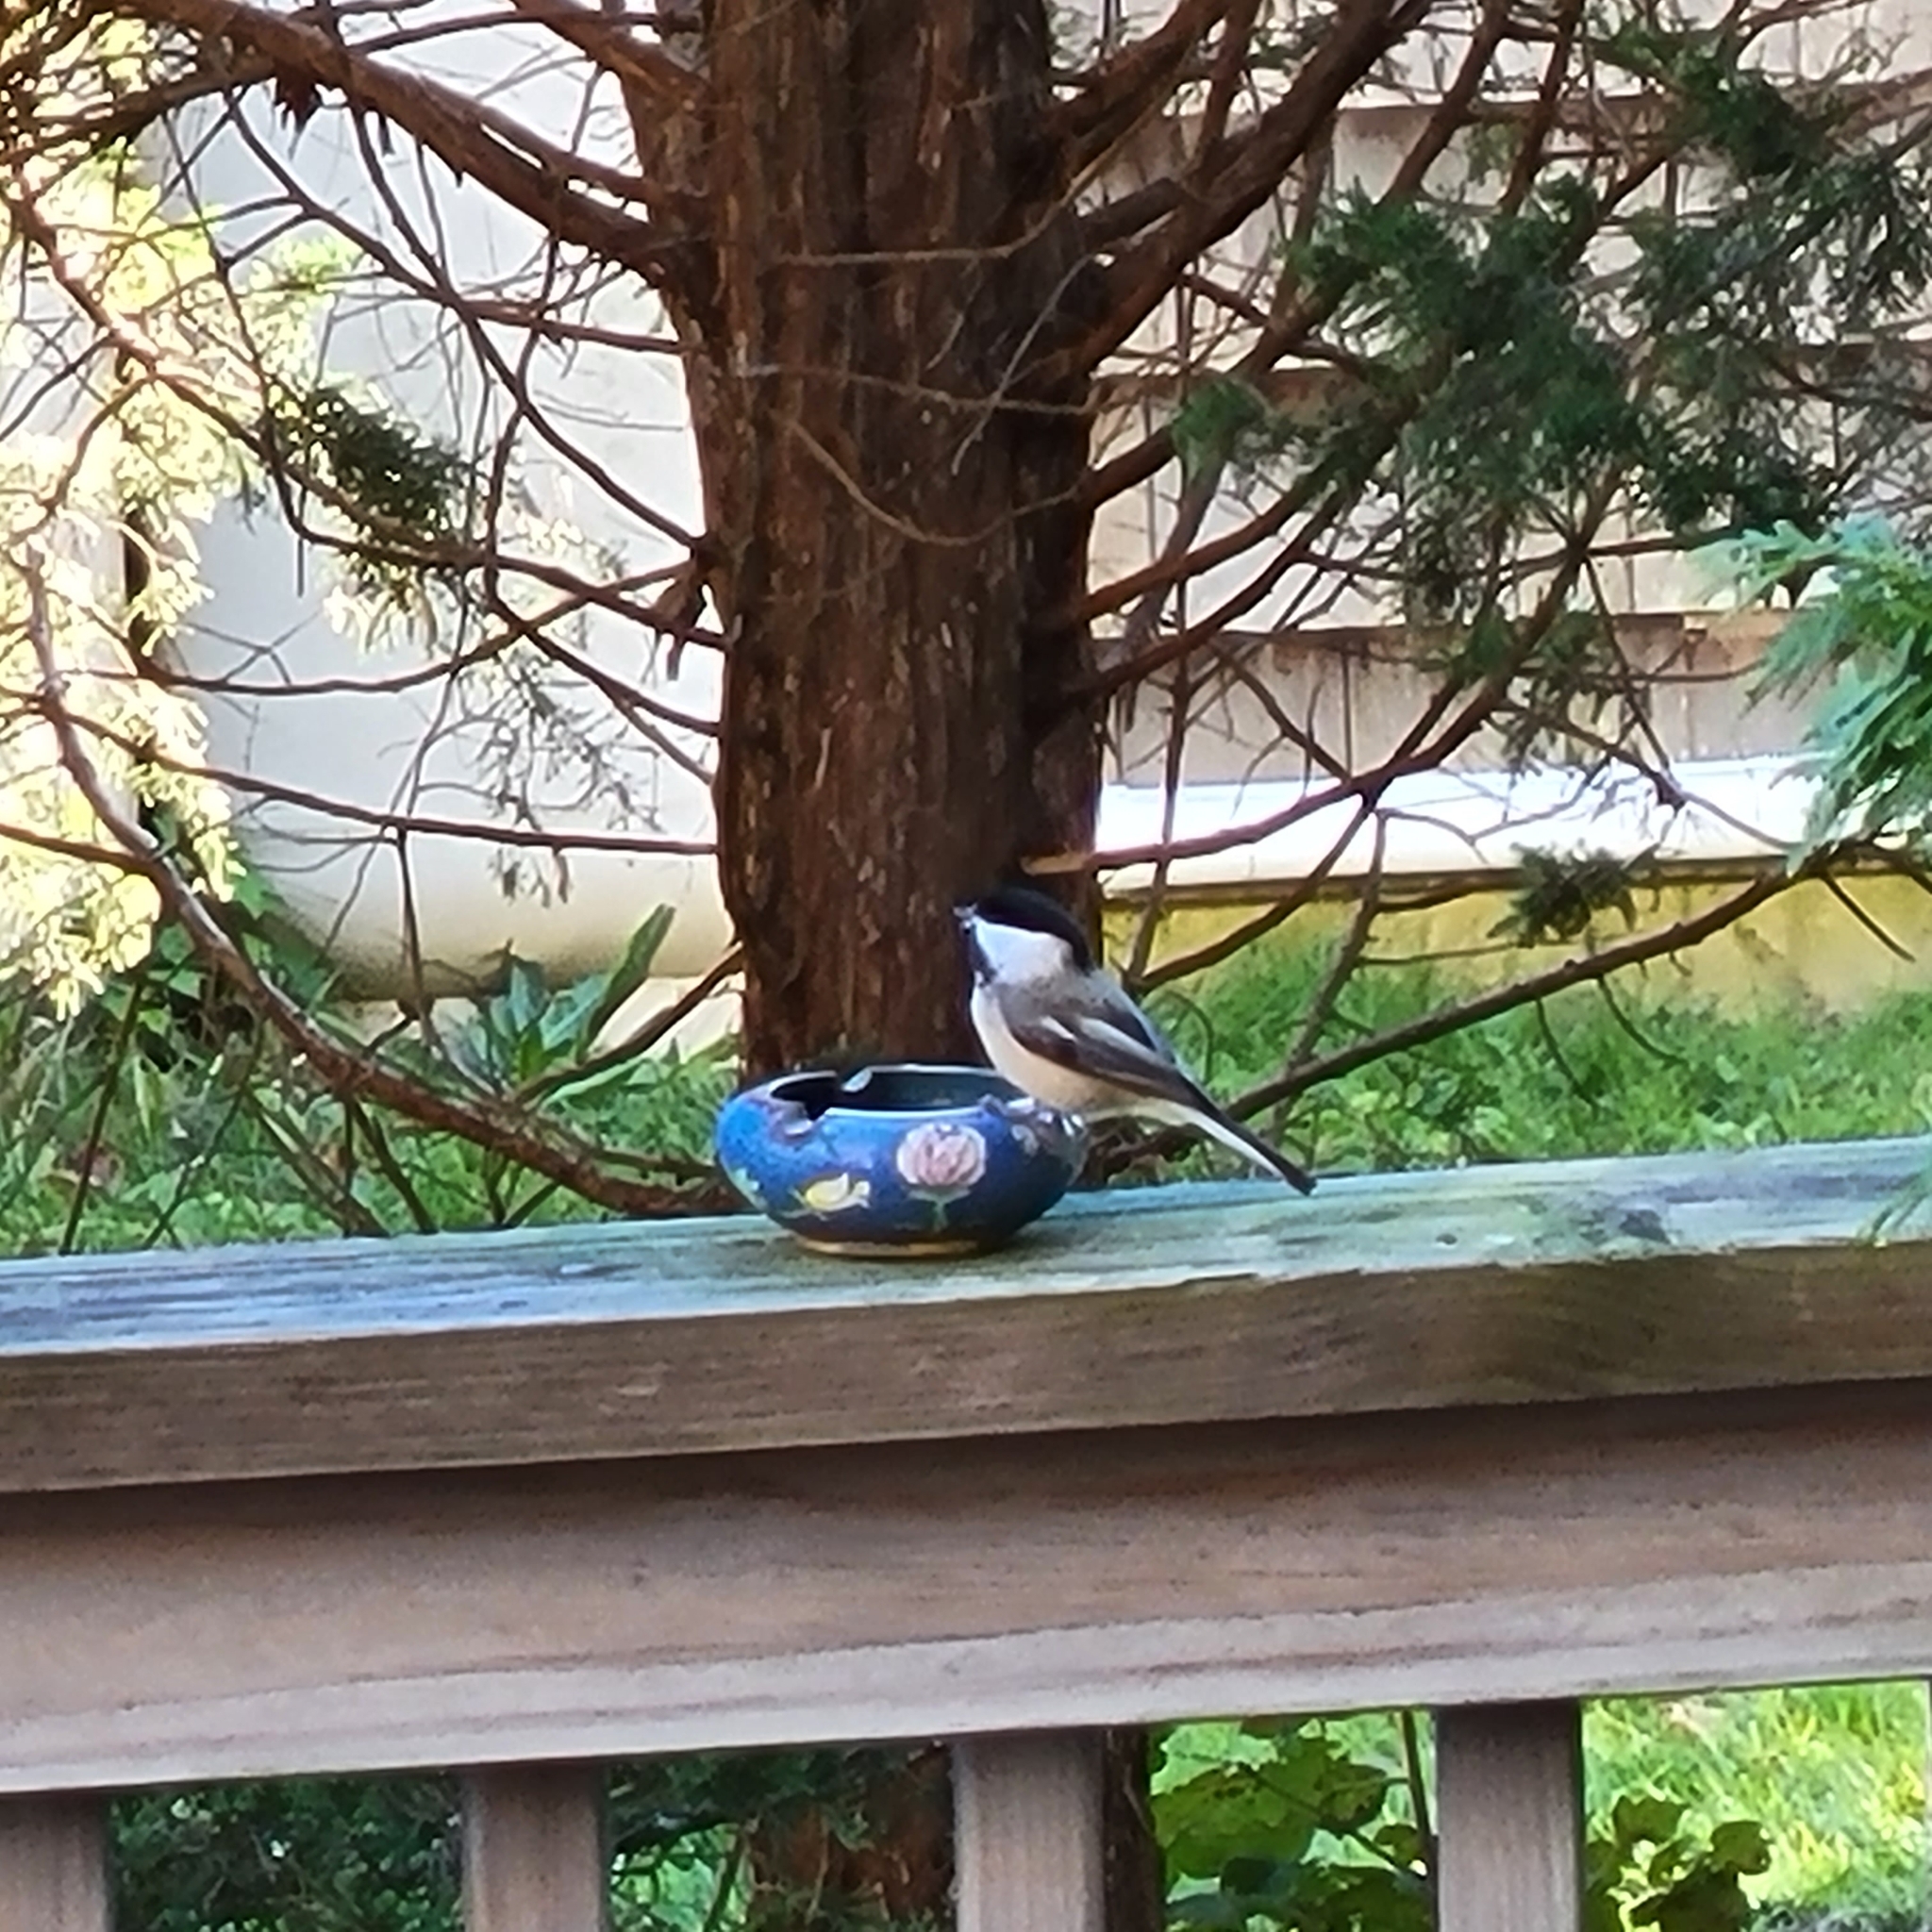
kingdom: Animalia
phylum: Chordata
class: Aves
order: Passeriformes
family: Paridae
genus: Poecile
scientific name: Poecile atricapillus
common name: Black-capped chickadee
